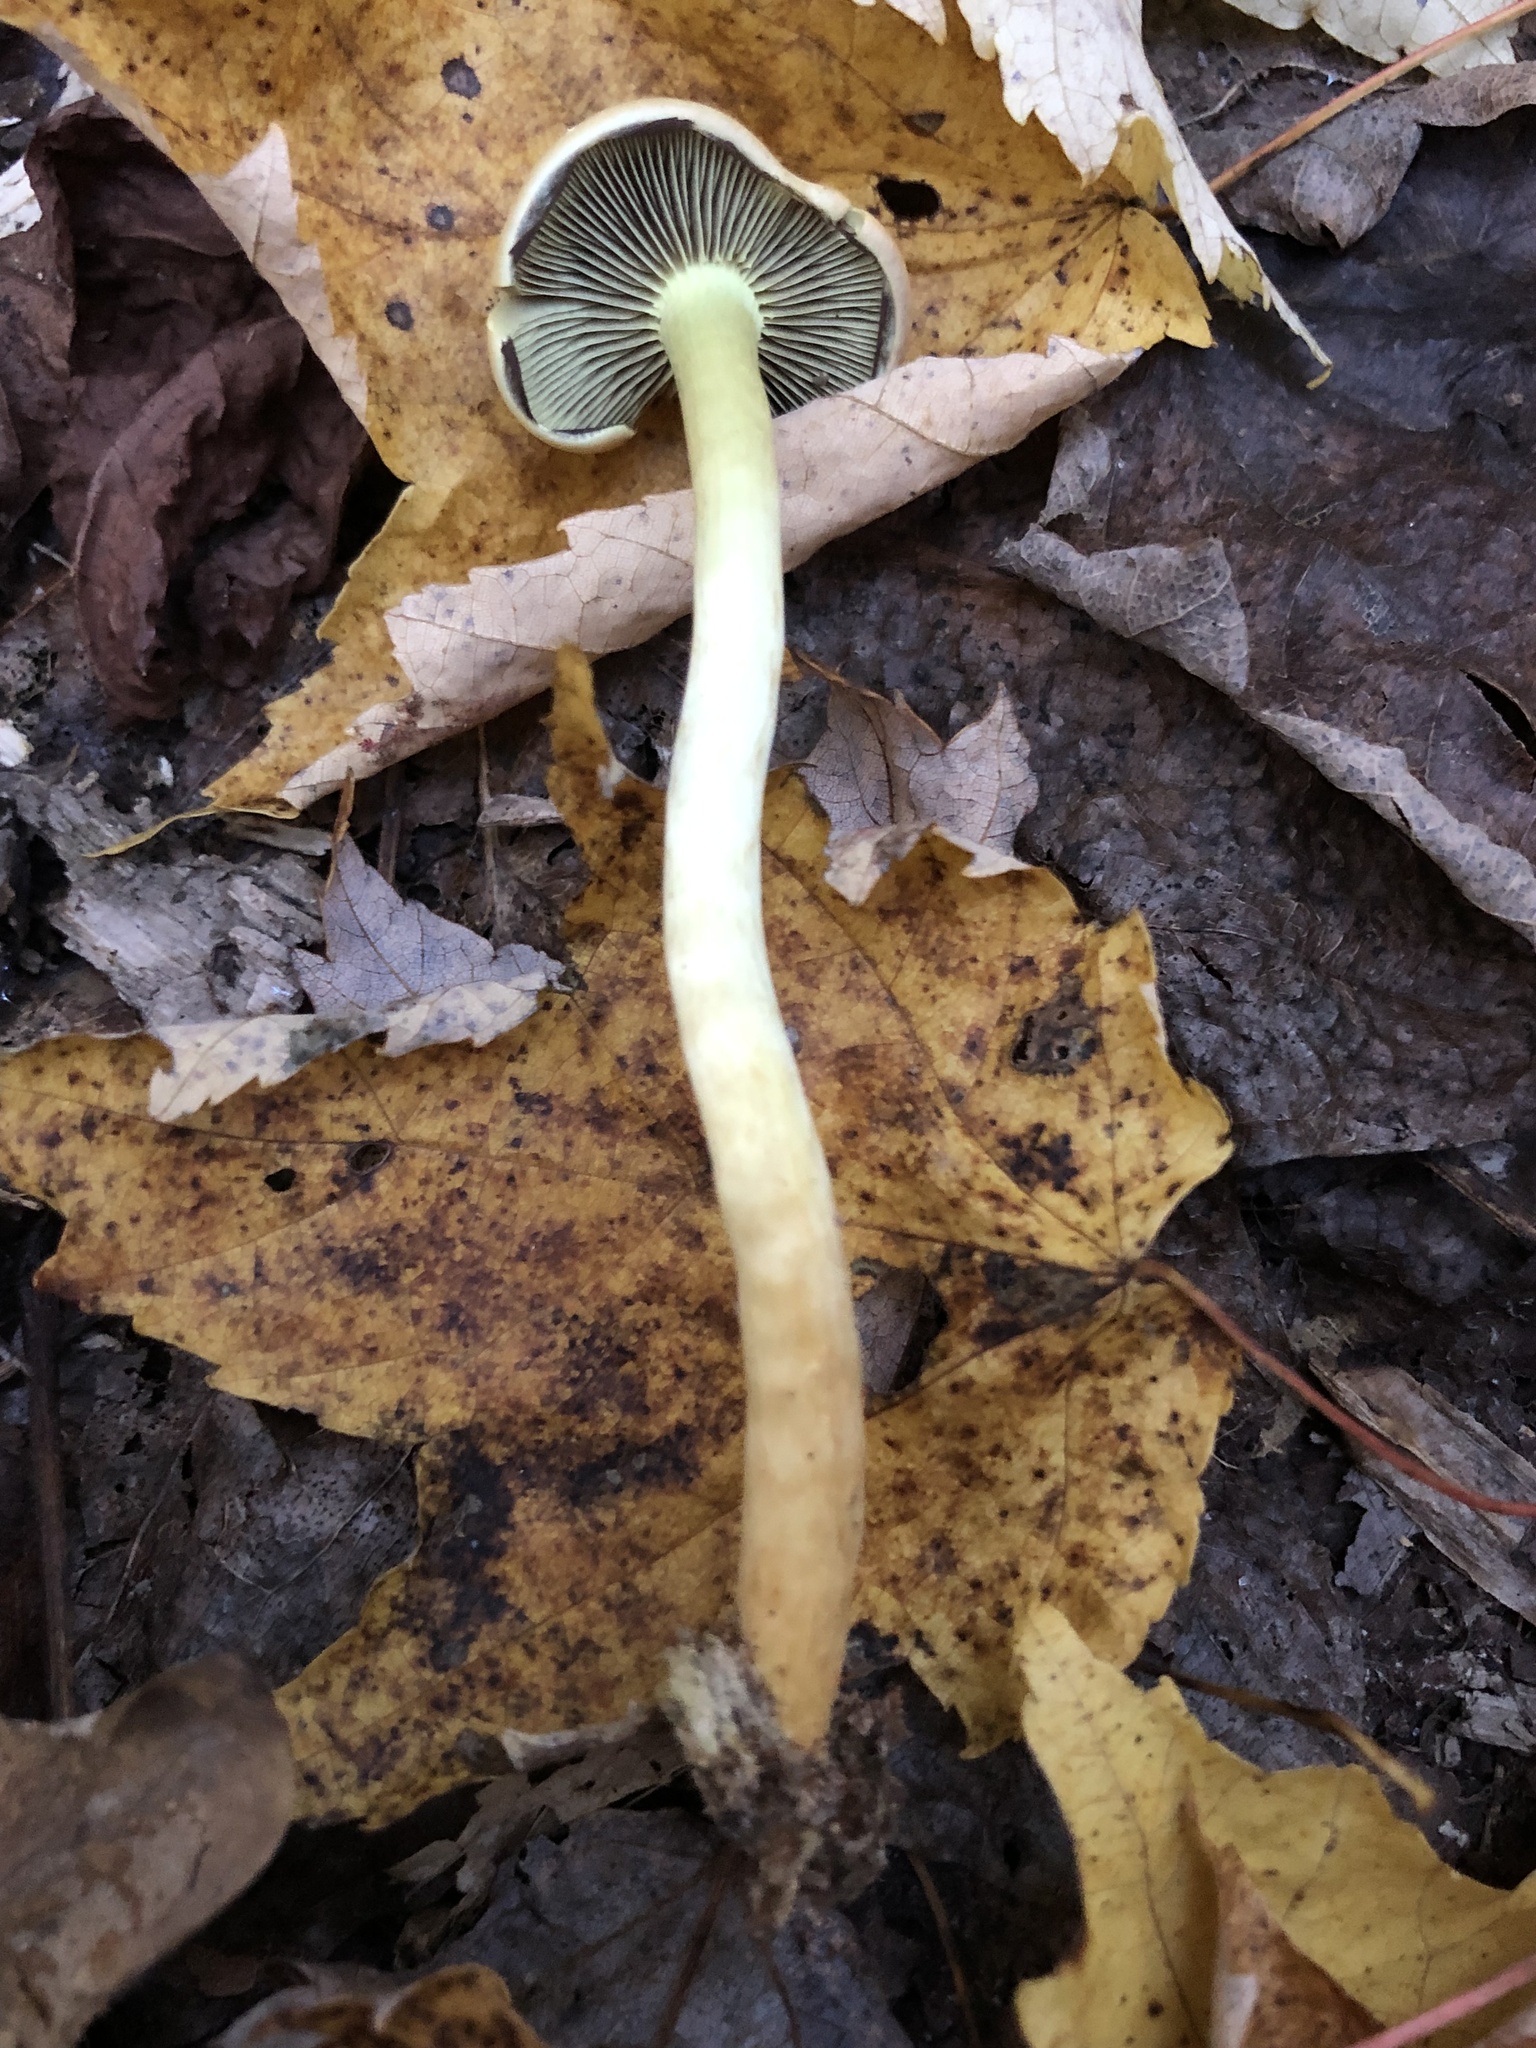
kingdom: Fungi
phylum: Basidiomycota
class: Agaricomycetes
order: Agaricales
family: Strophariaceae
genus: Hypholoma
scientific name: Hypholoma fasciculare
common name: Sulphur tuft
